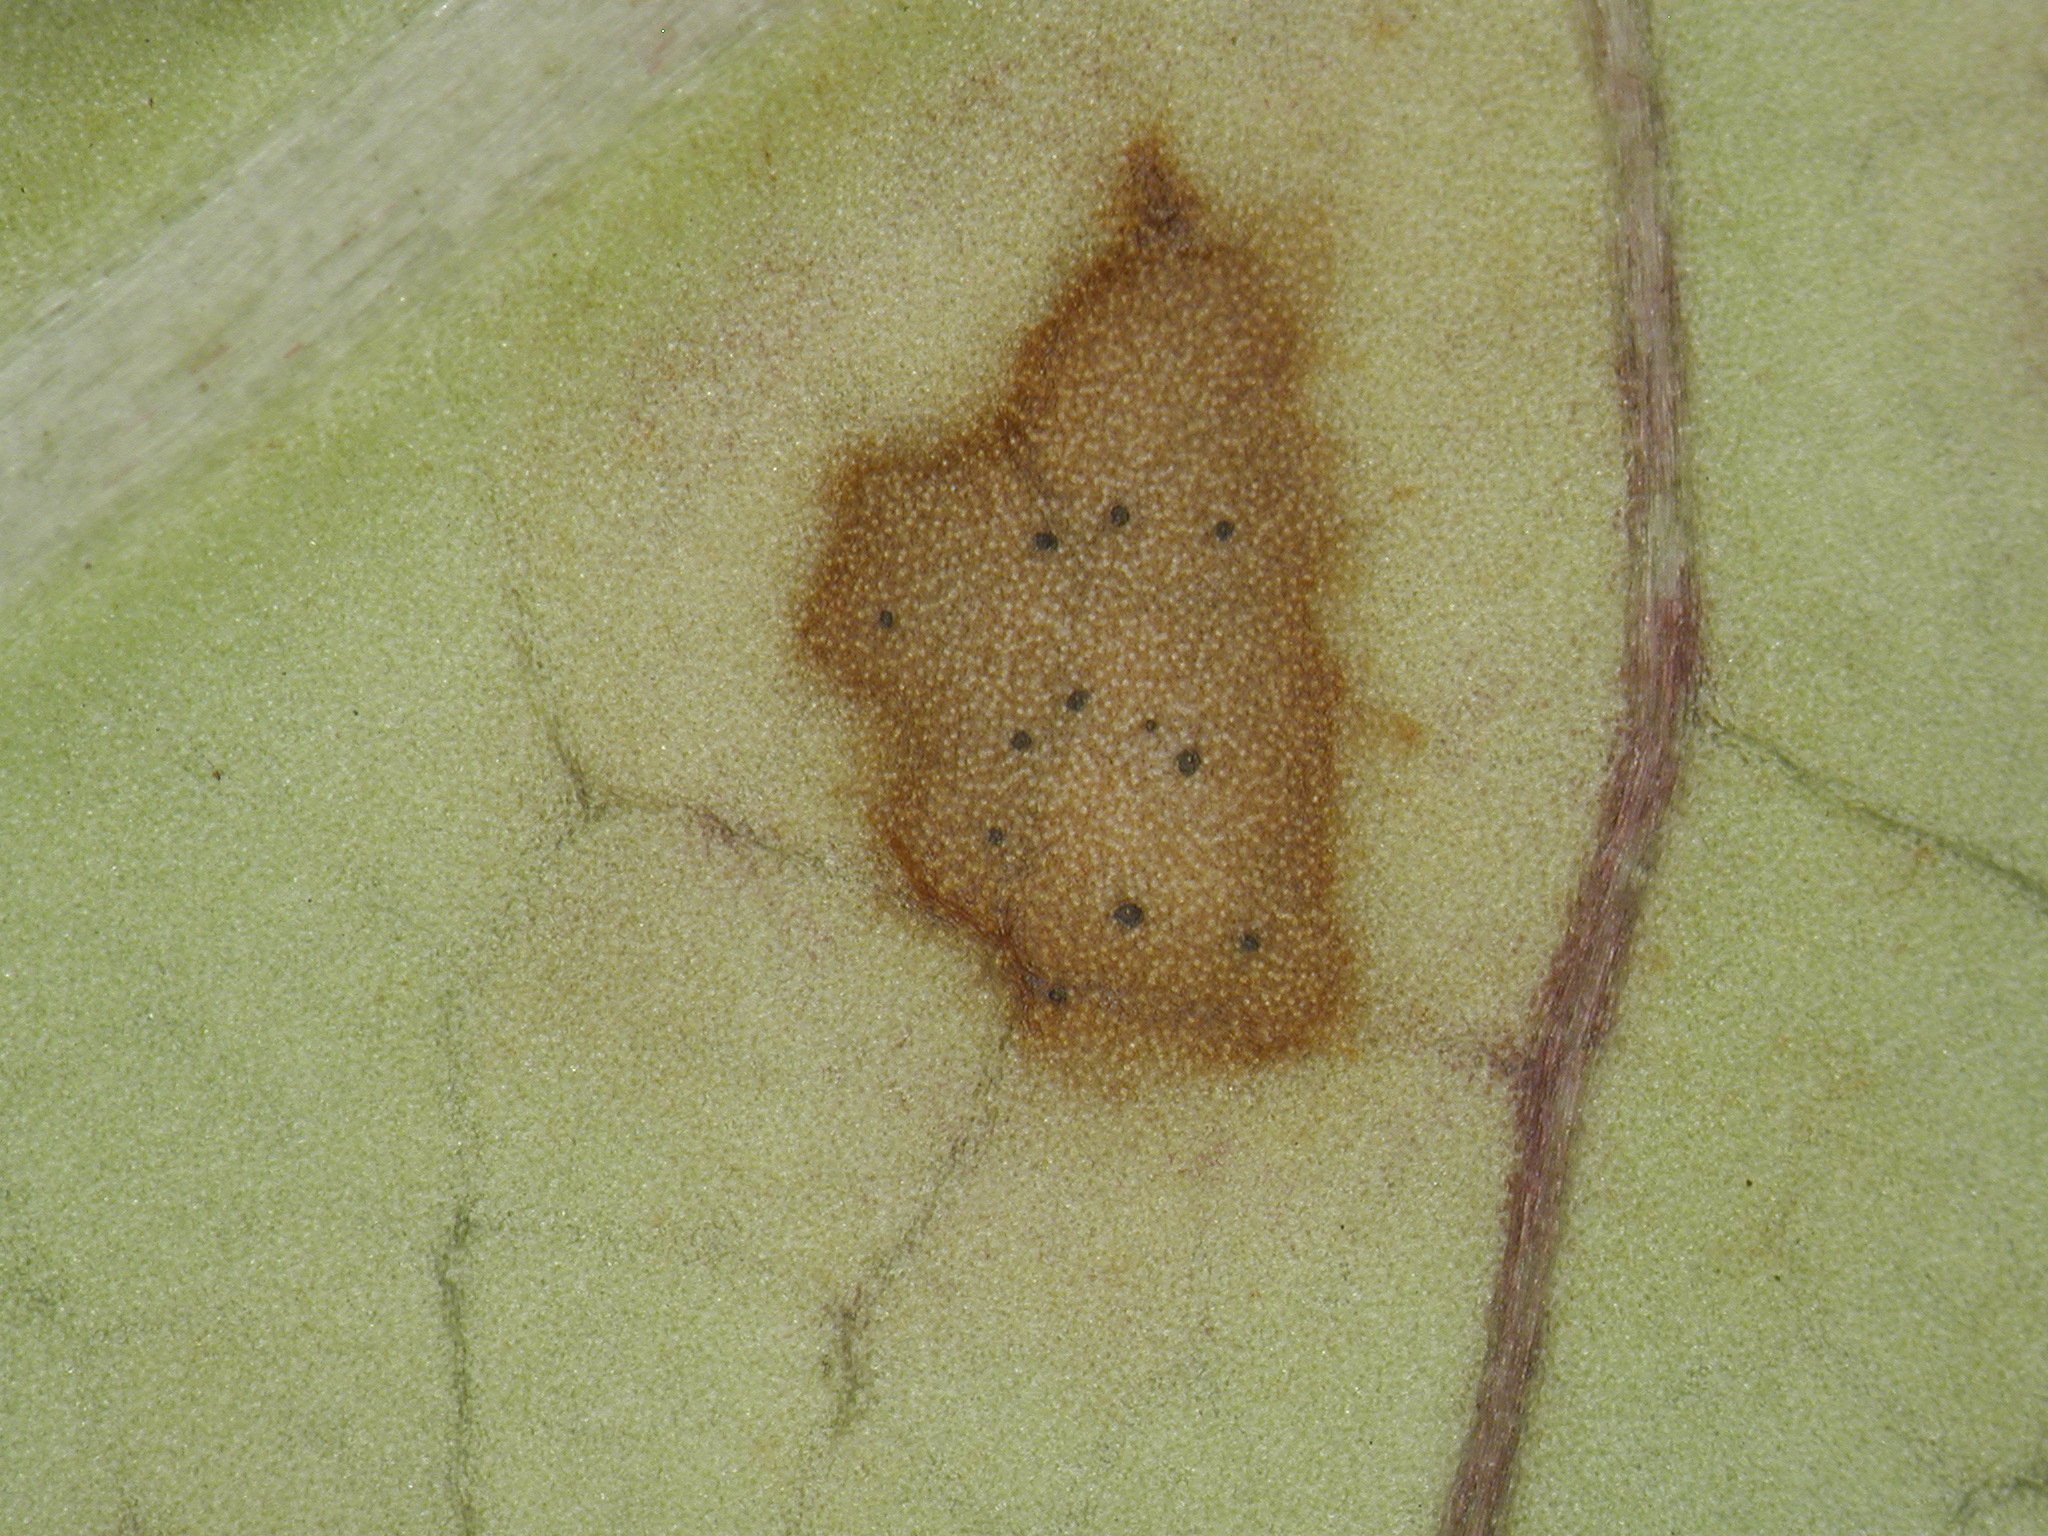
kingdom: Fungi
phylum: Ascomycota
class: Dothideomycetes
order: Mycosphaerellales
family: Mycosphaerellaceae
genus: Pseudophaeophleospora
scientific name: Pseudophaeophleospora atkinsonii
